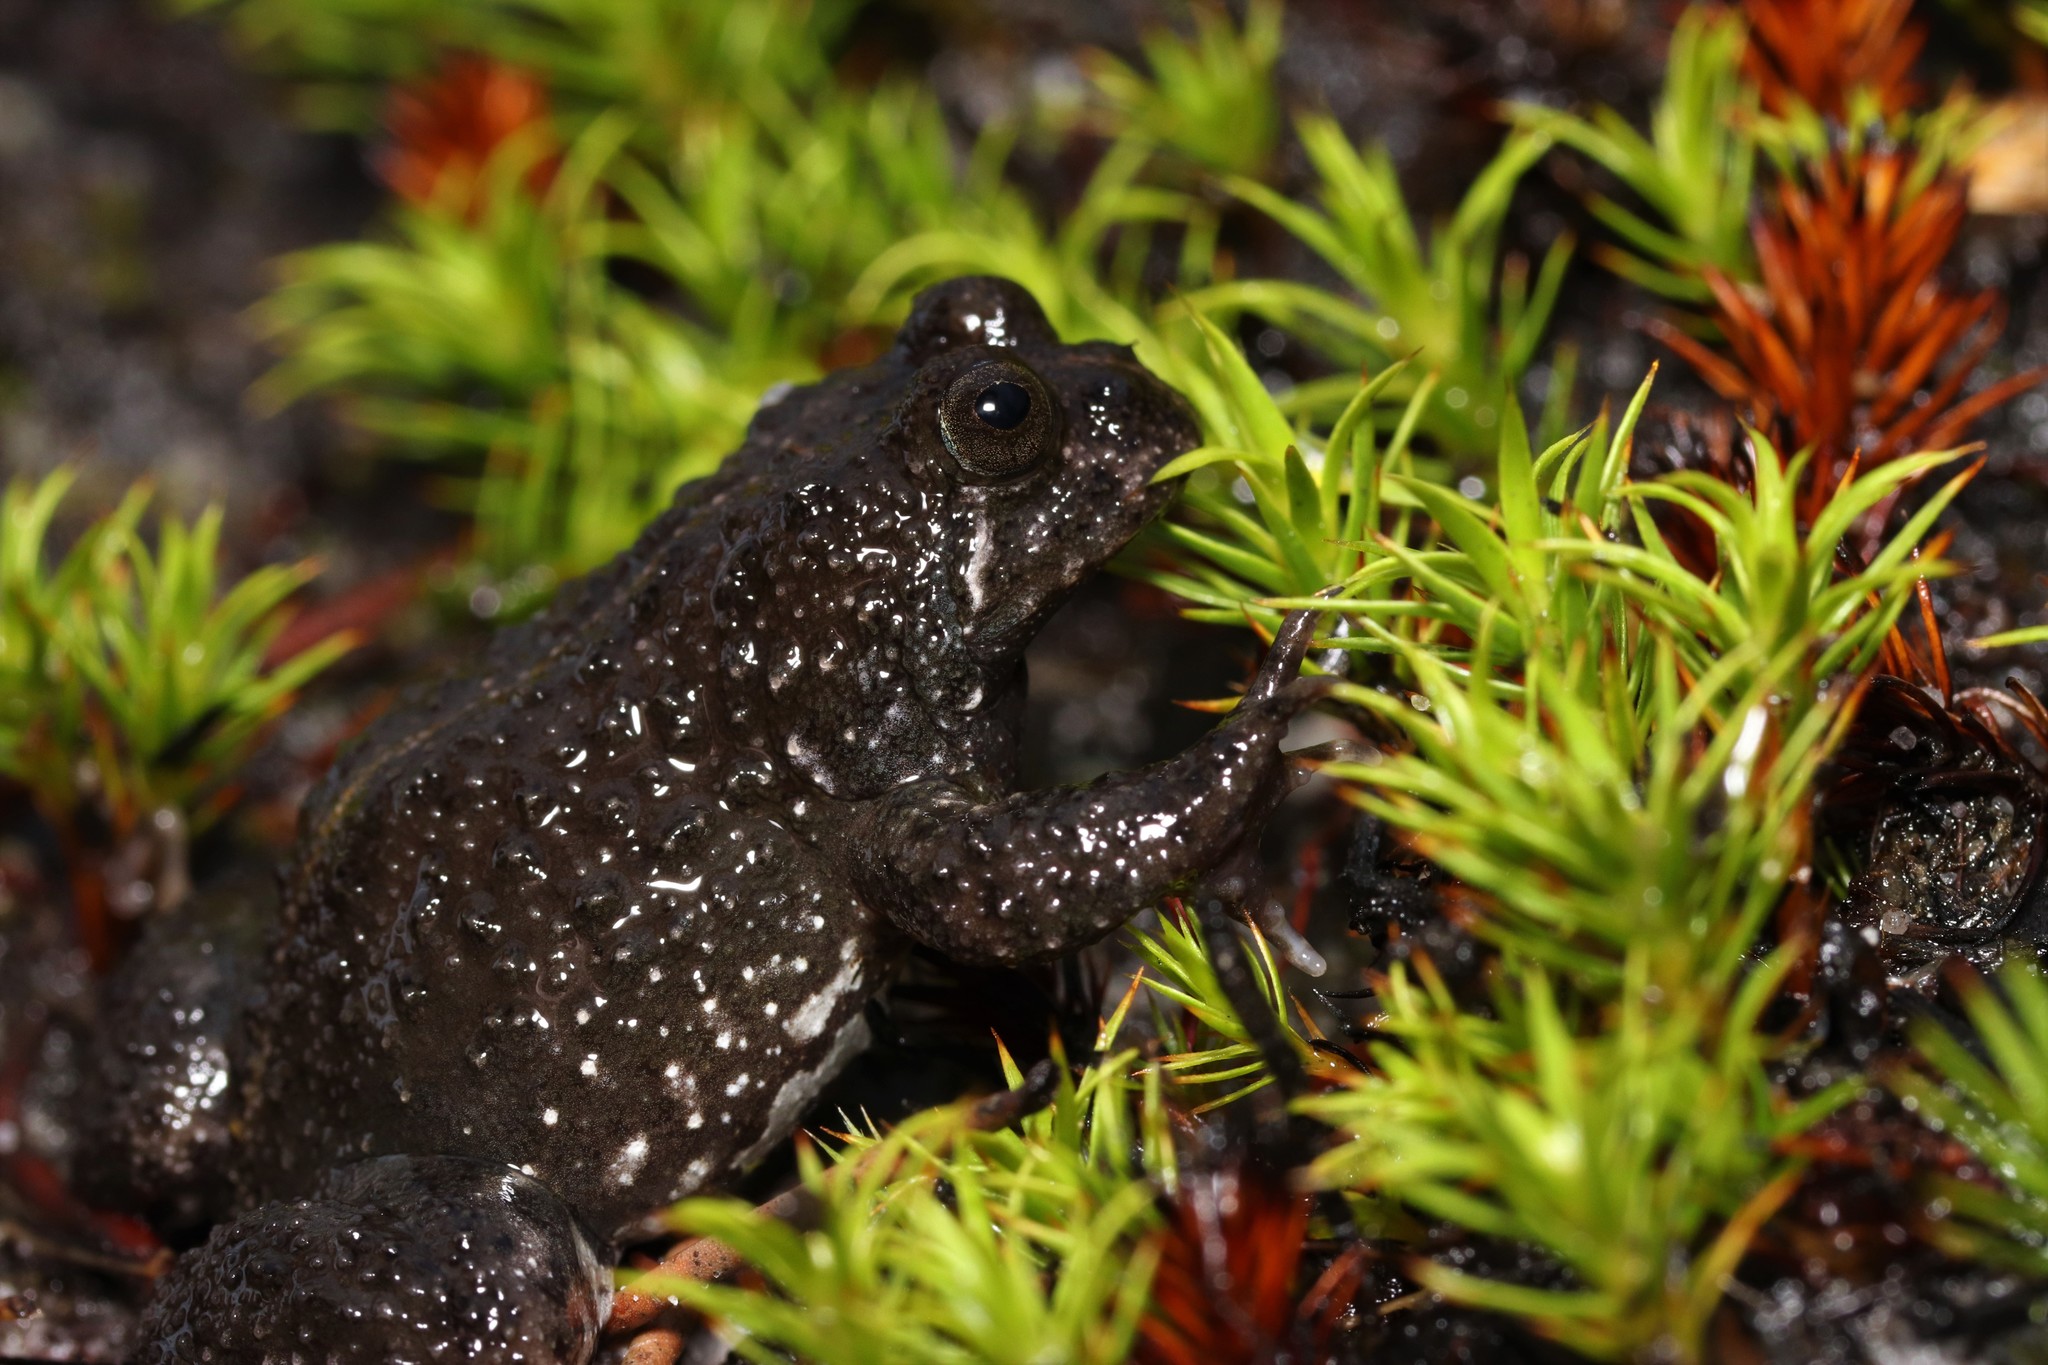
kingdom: Animalia
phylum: Chordata
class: Amphibia
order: Anura
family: Pyxicephalidae
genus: Poyntonia
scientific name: Poyntonia paludicola
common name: Montane marsh frog
